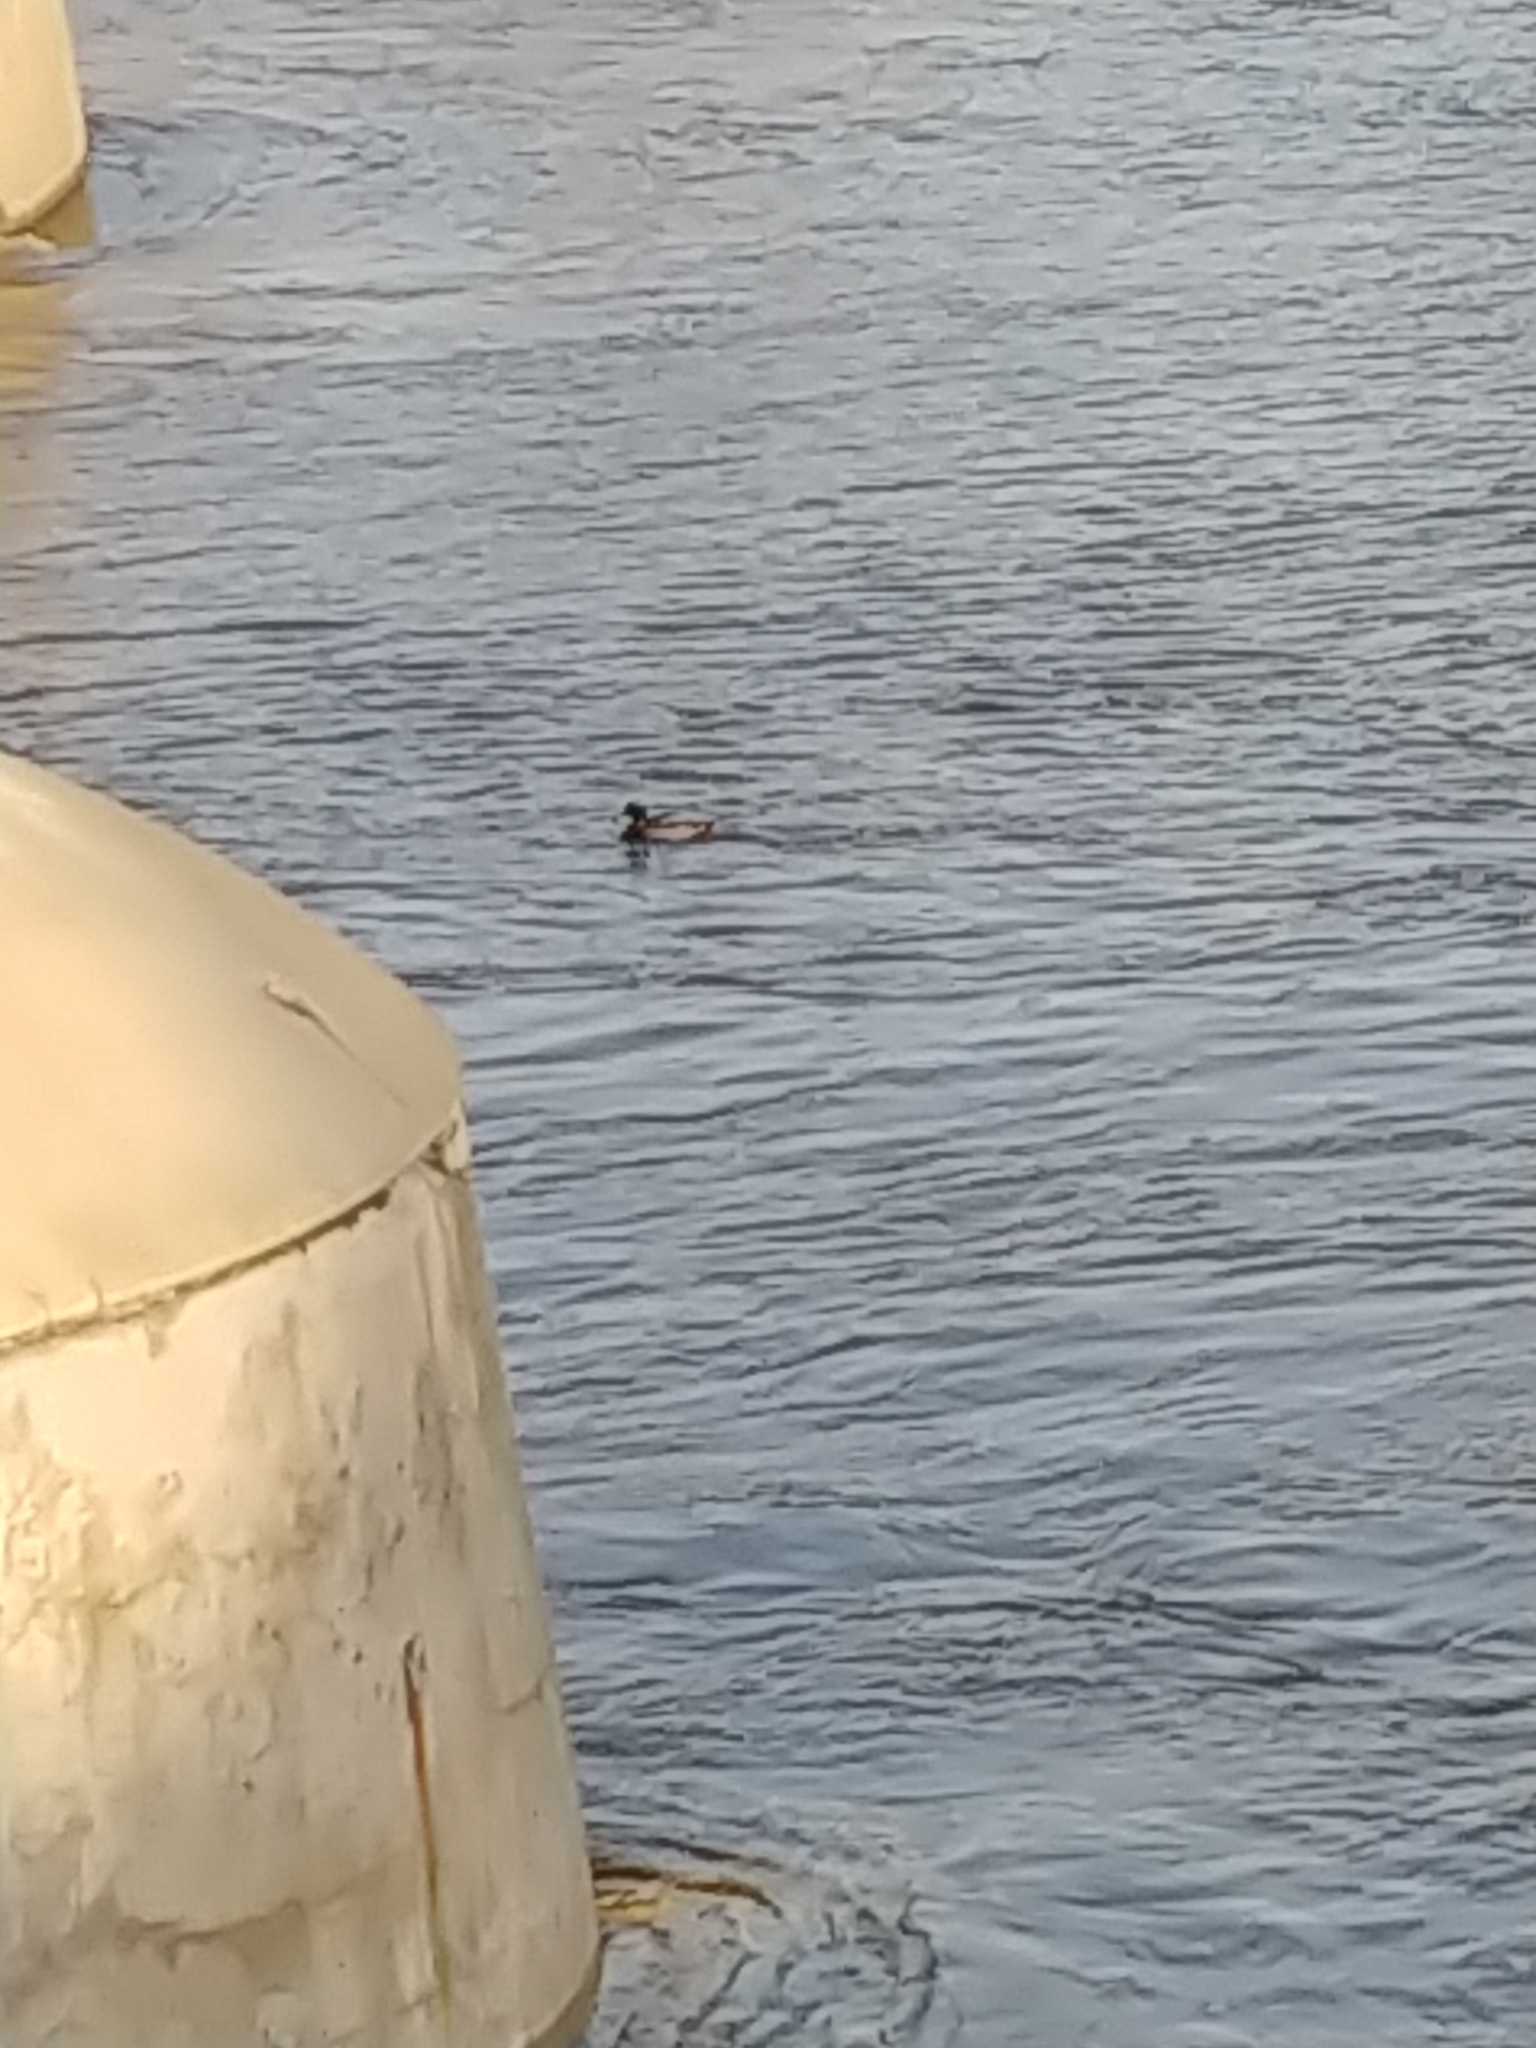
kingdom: Animalia
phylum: Chordata
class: Aves
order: Anseriformes
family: Anatidae
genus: Anas
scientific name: Anas platyrhynchos
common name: Mallard
